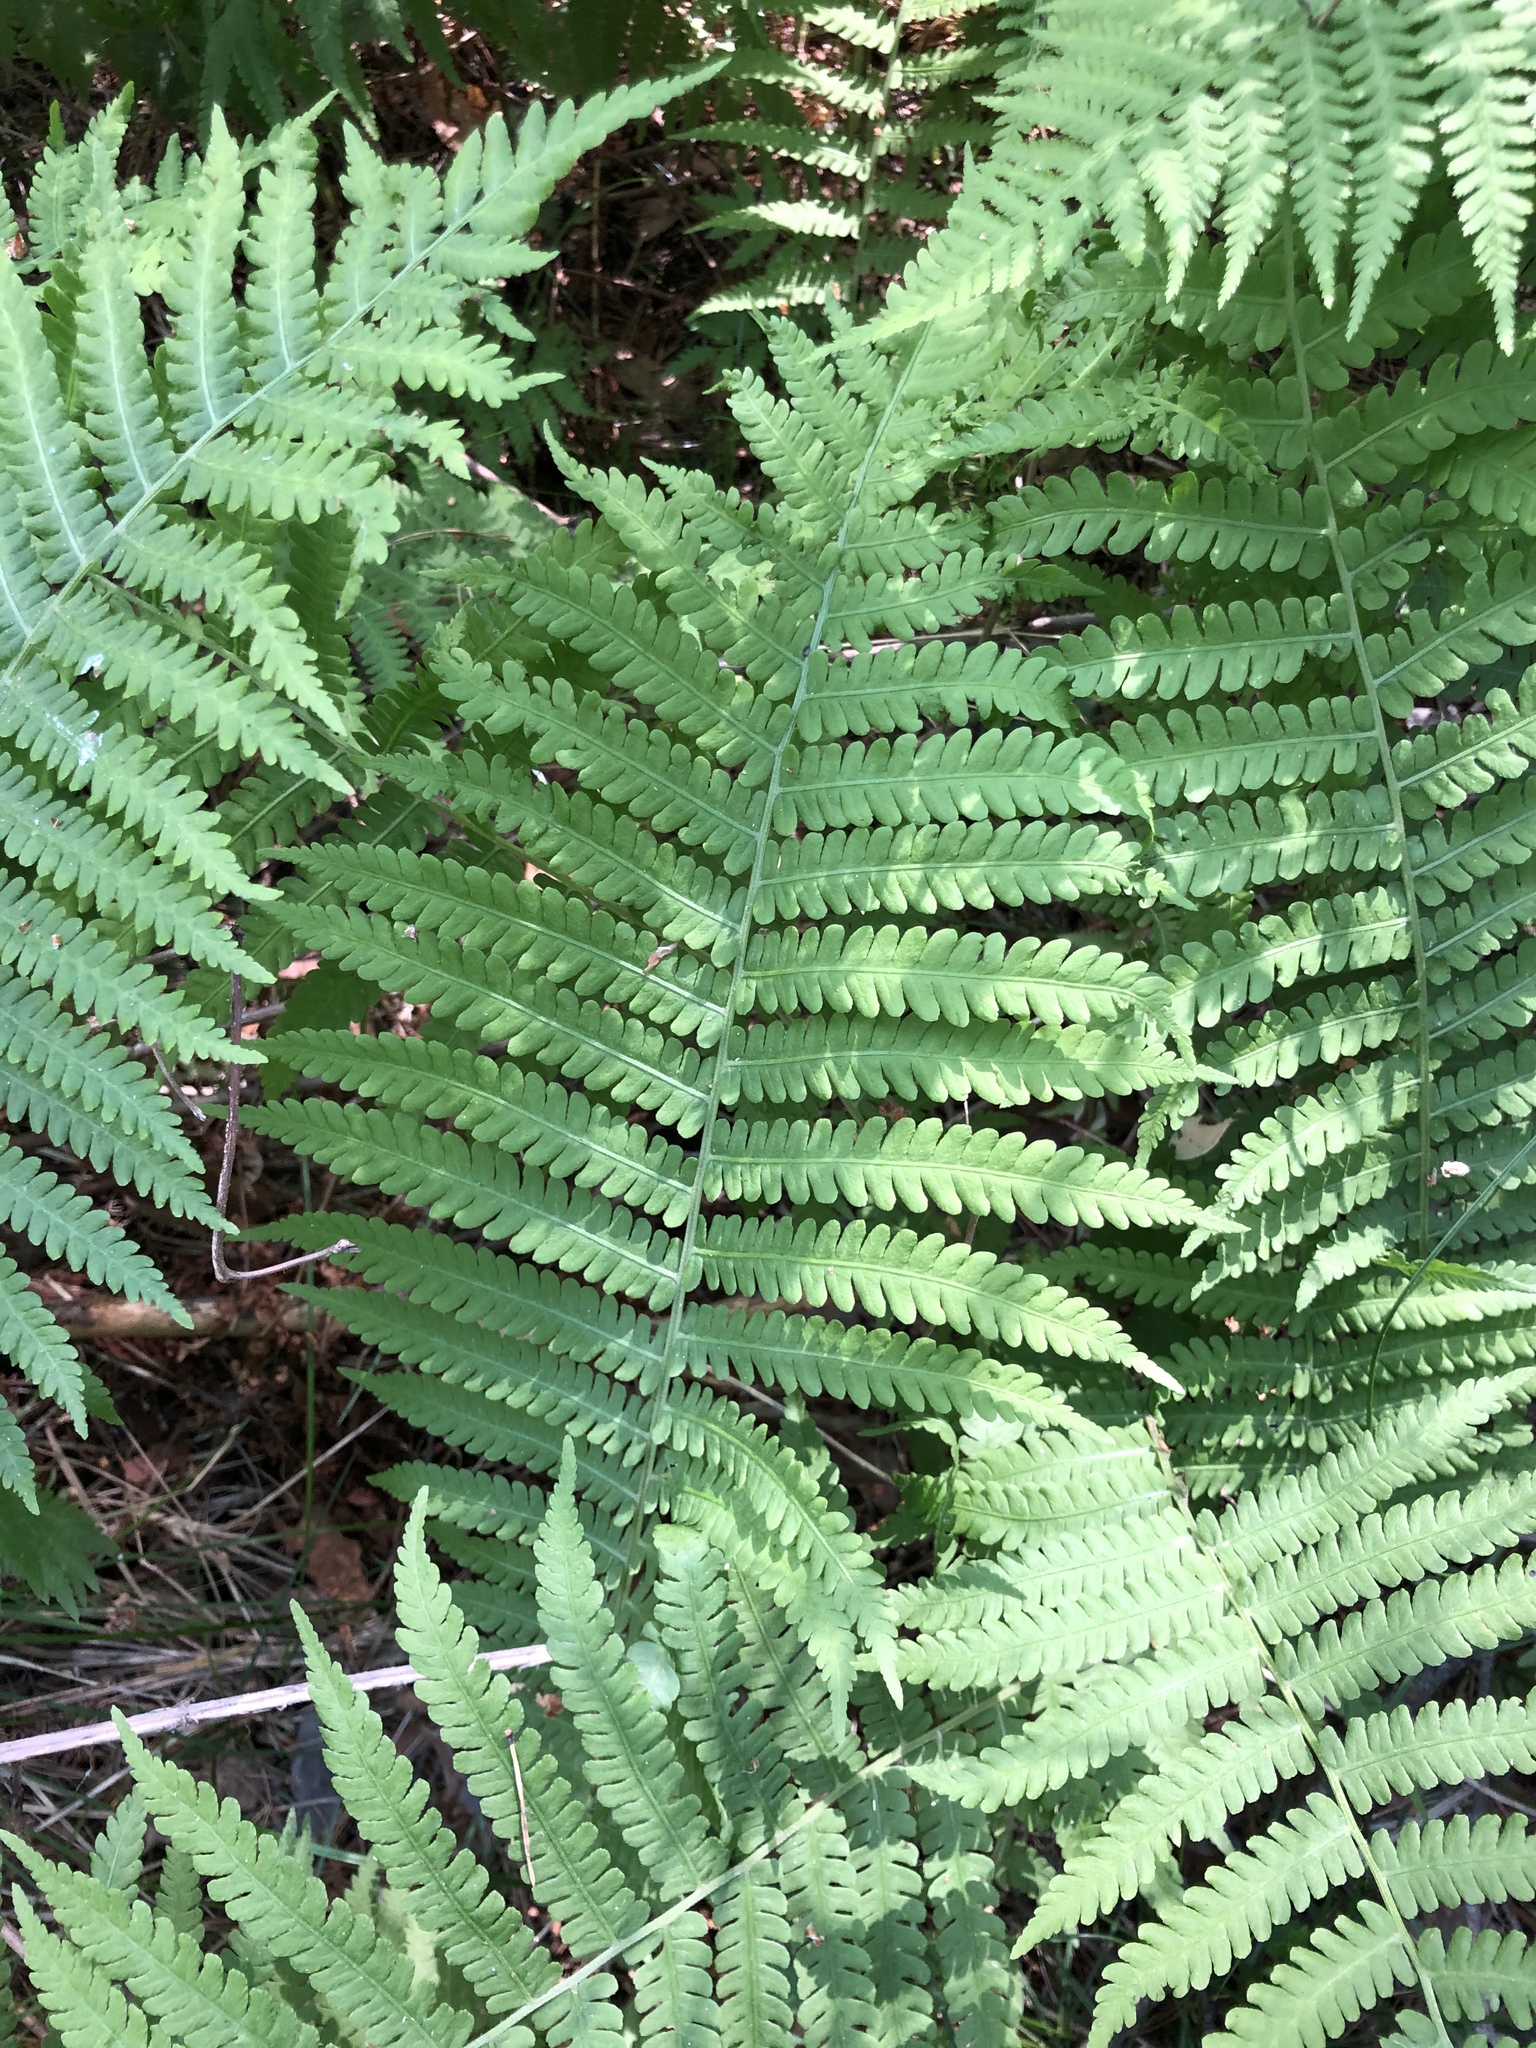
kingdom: Plantae
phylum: Tracheophyta
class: Polypodiopsida
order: Polypodiales
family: Onocleaceae
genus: Matteuccia
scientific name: Matteuccia struthiopteris
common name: Ostrich fern
